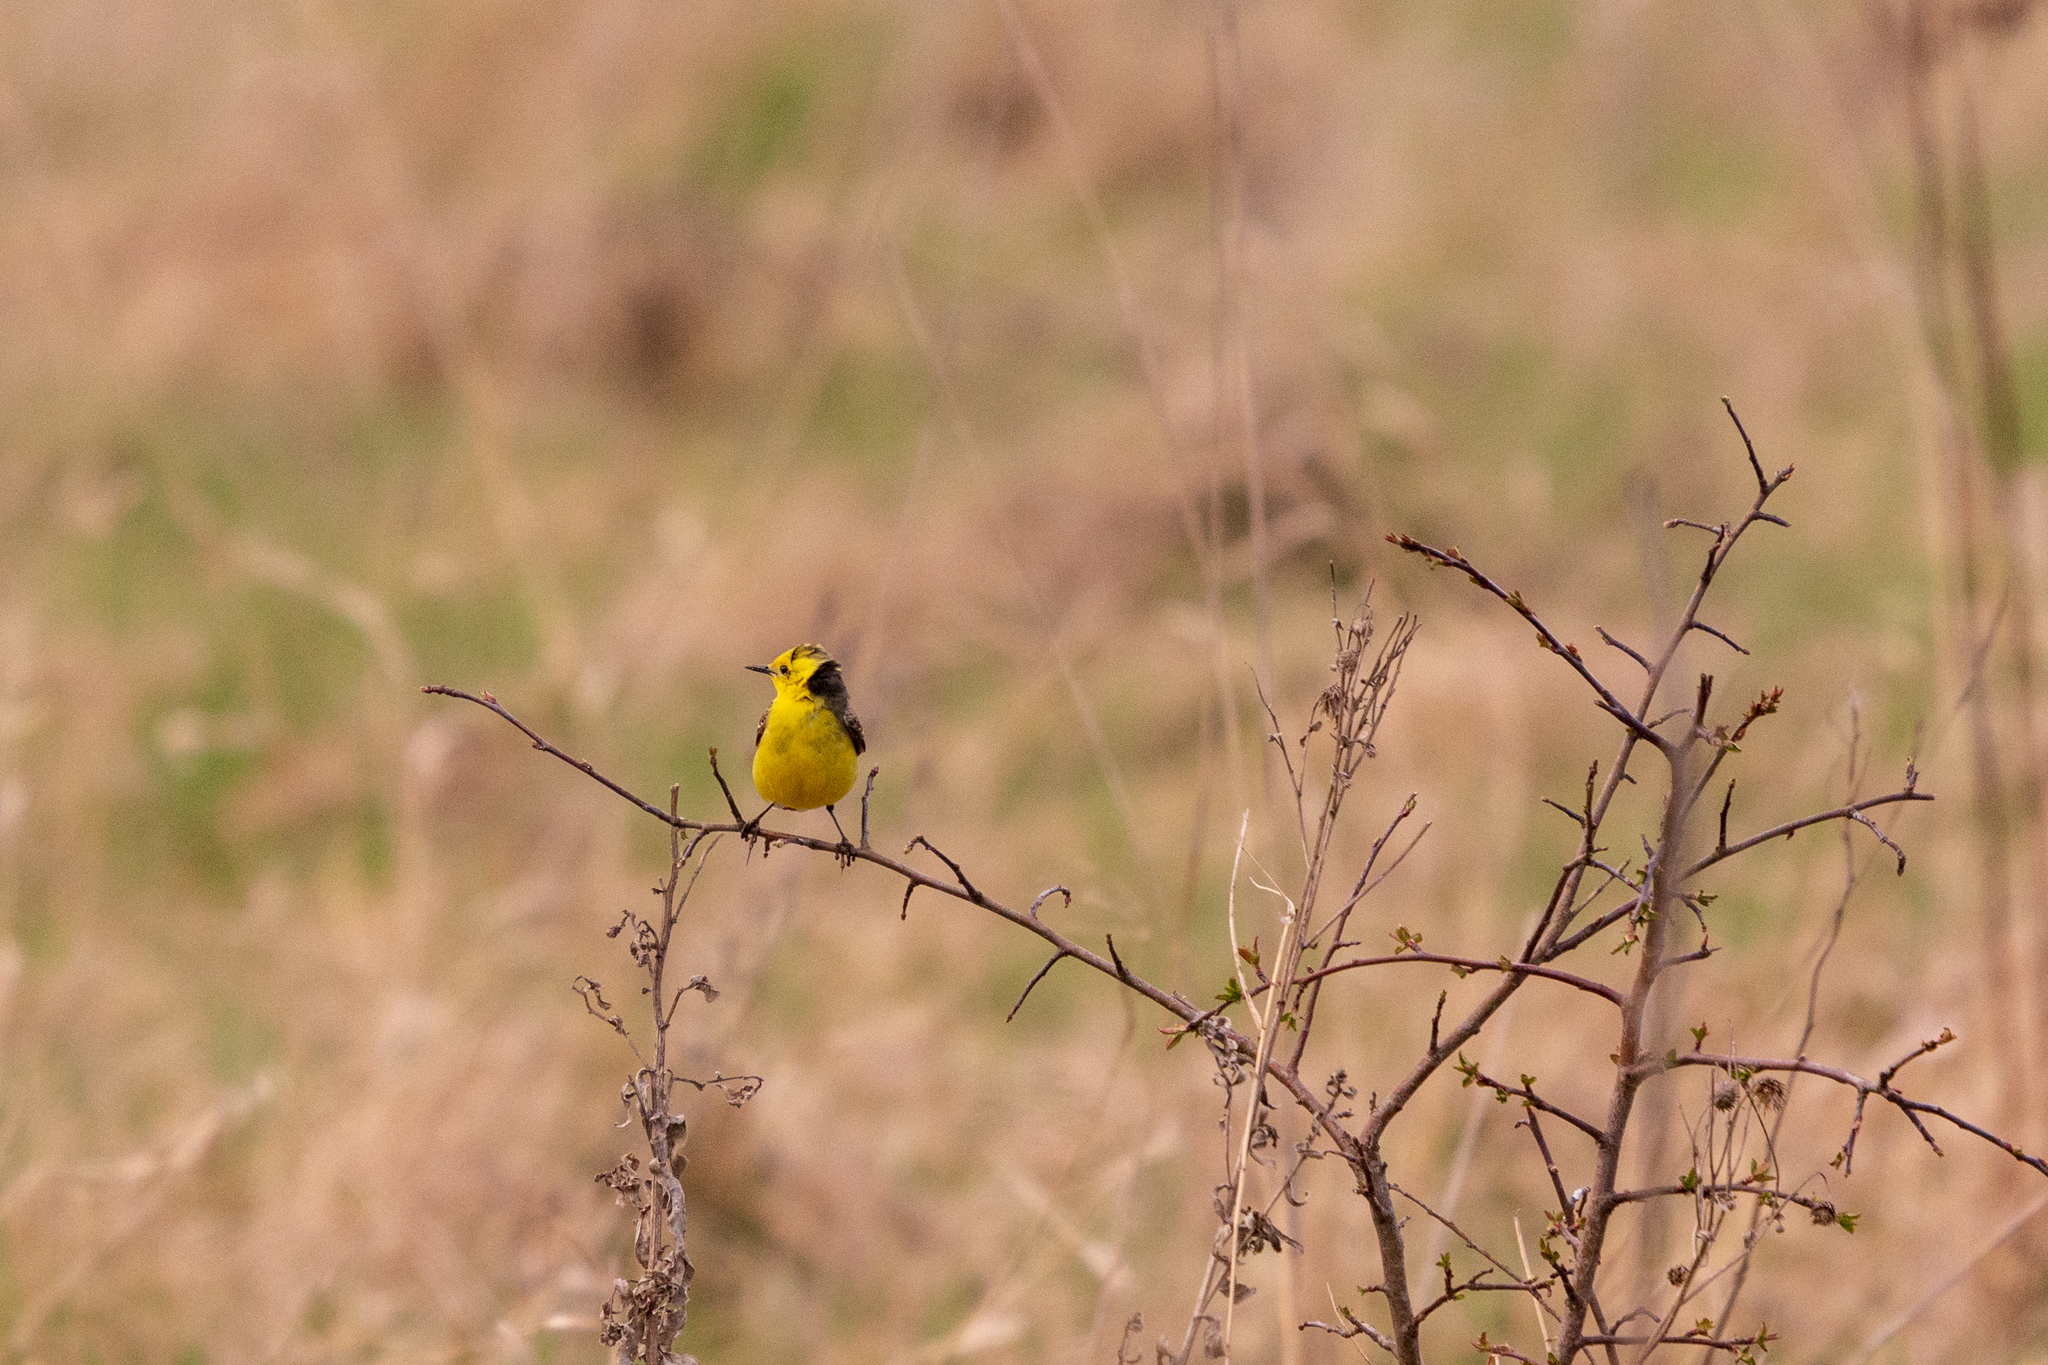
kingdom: Animalia
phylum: Chordata
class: Aves
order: Passeriformes
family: Motacillidae
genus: Motacilla
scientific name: Motacilla citreola
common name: Citrine wagtail
